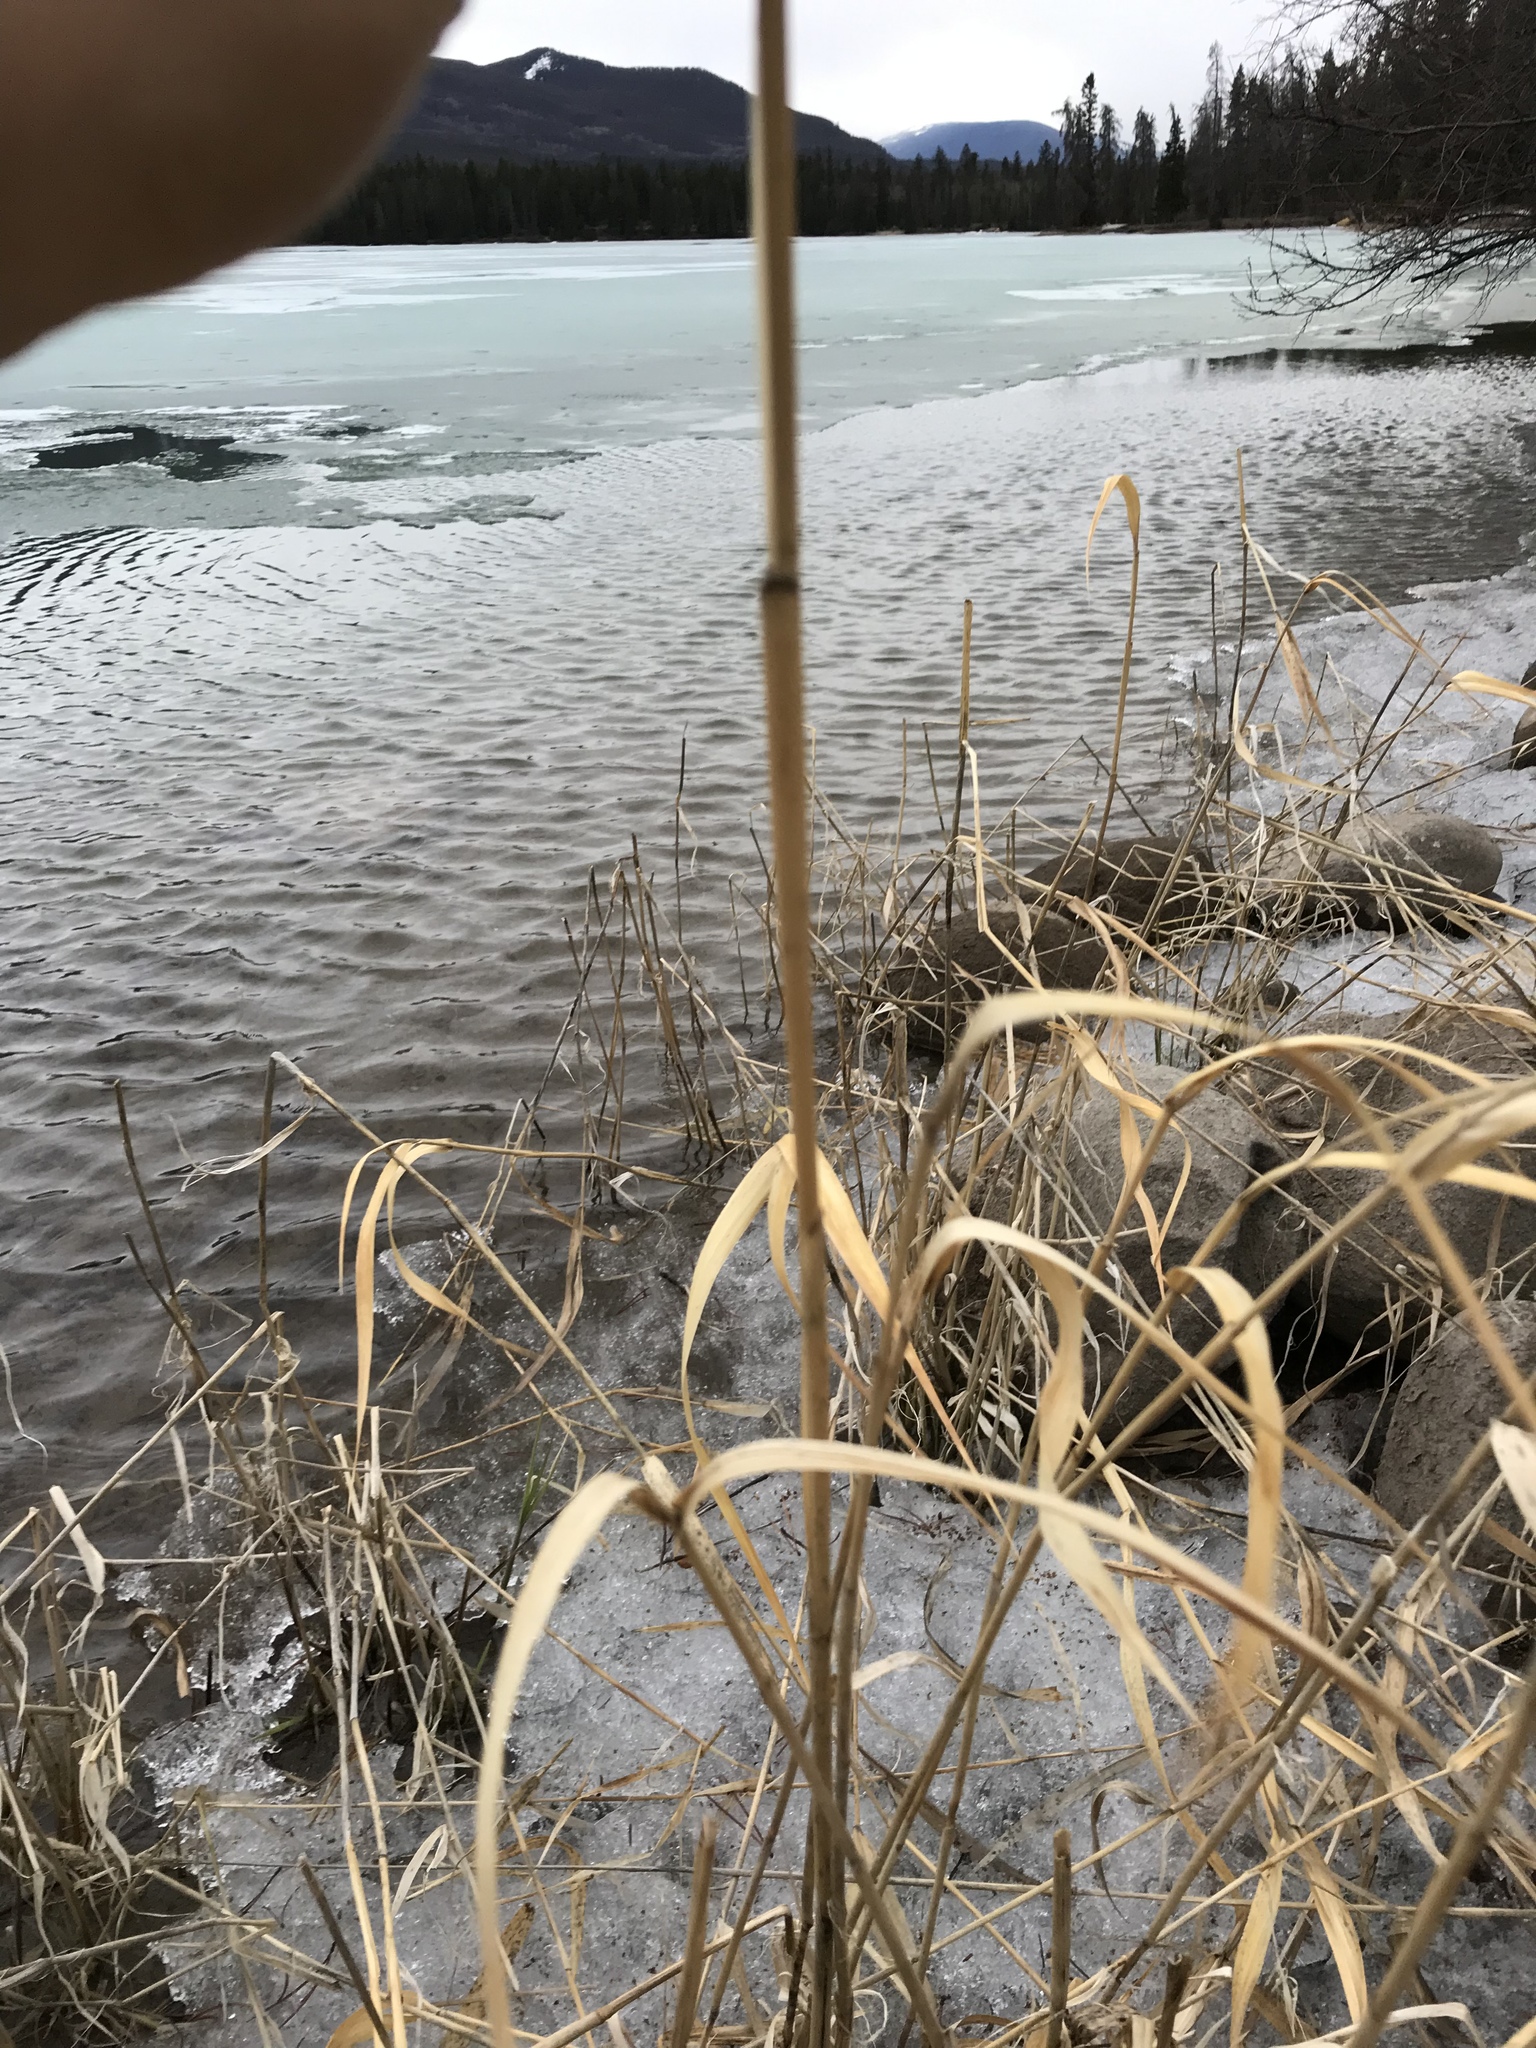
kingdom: Plantae
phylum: Tracheophyta
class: Liliopsida
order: Poales
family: Poaceae
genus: Phalaris
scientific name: Phalaris arundinacea
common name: Reed canary-grass
